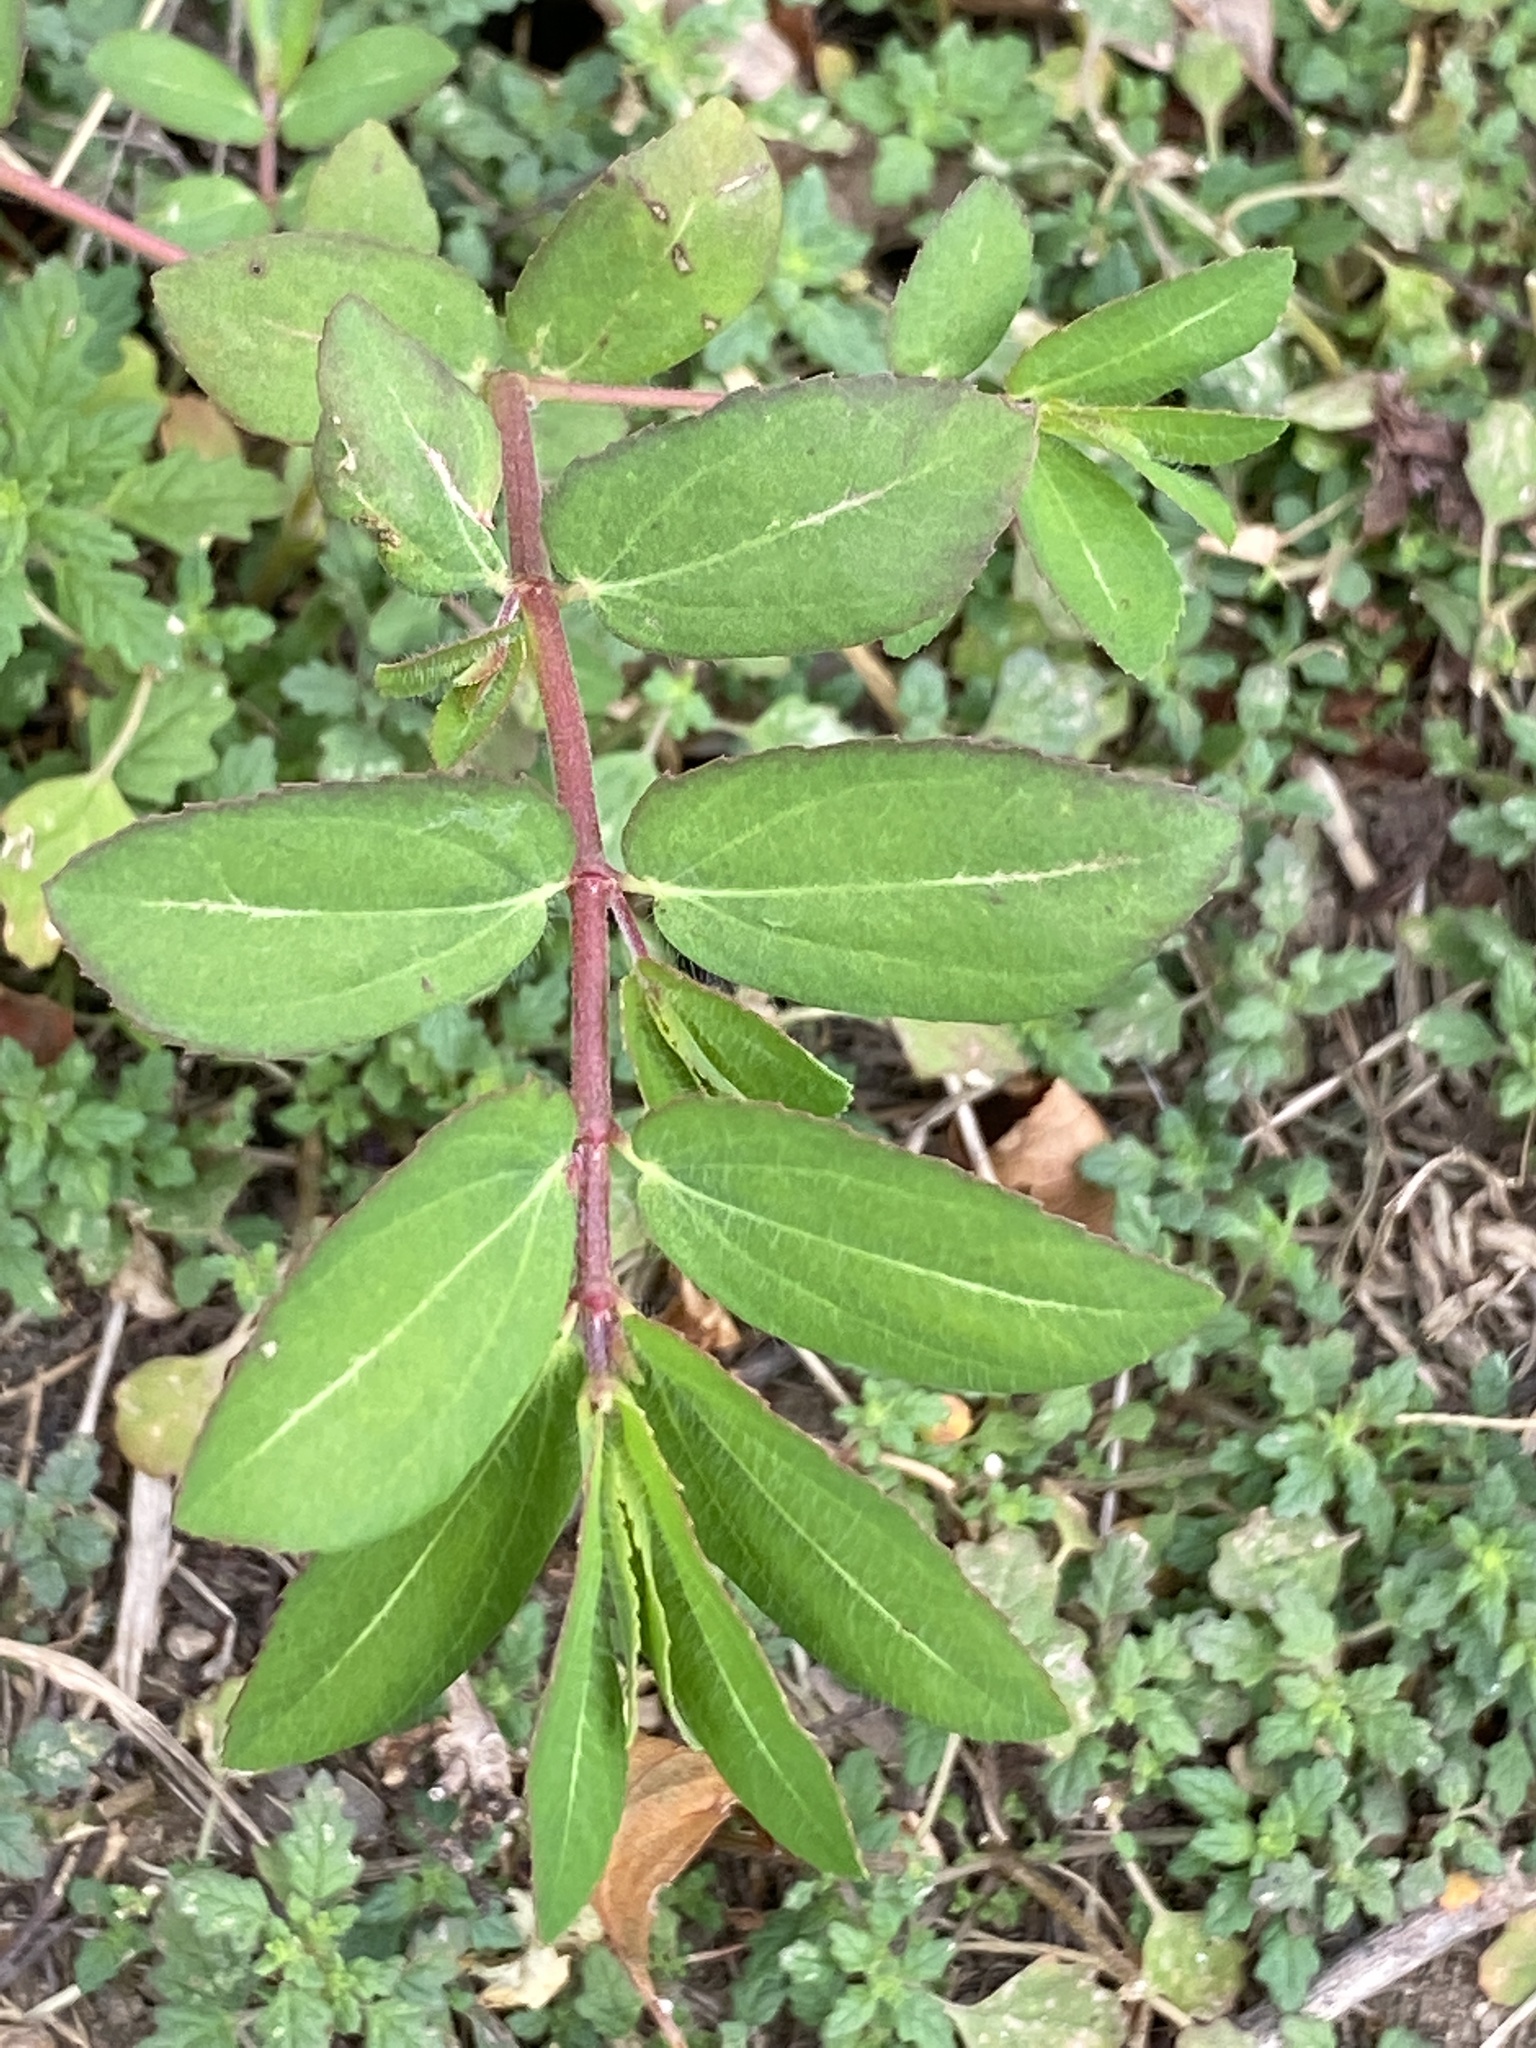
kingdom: Plantae
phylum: Tracheophyta
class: Magnoliopsida
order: Malpighiales
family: Euphorbiaceae
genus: Euphorbia
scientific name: Euphorbia nutans
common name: Eyebane
